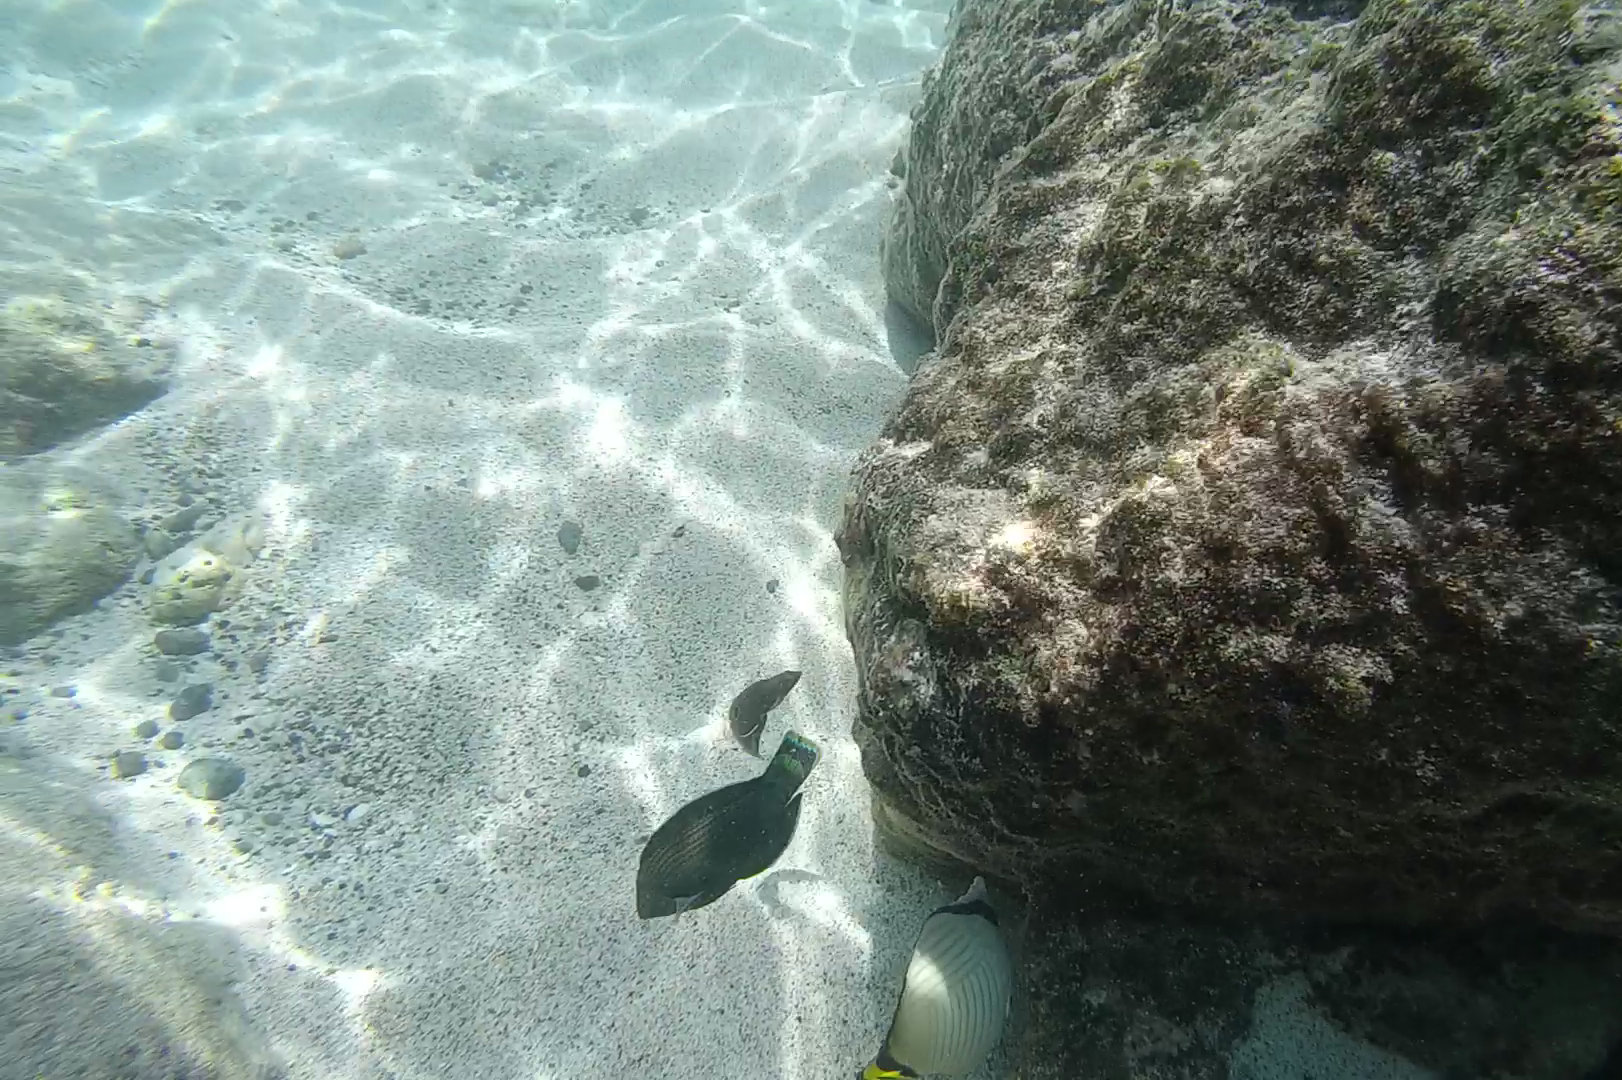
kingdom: Animalia
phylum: Chordata
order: Perciformes
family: Labridae
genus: Halichoeres
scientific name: Halichoeres
